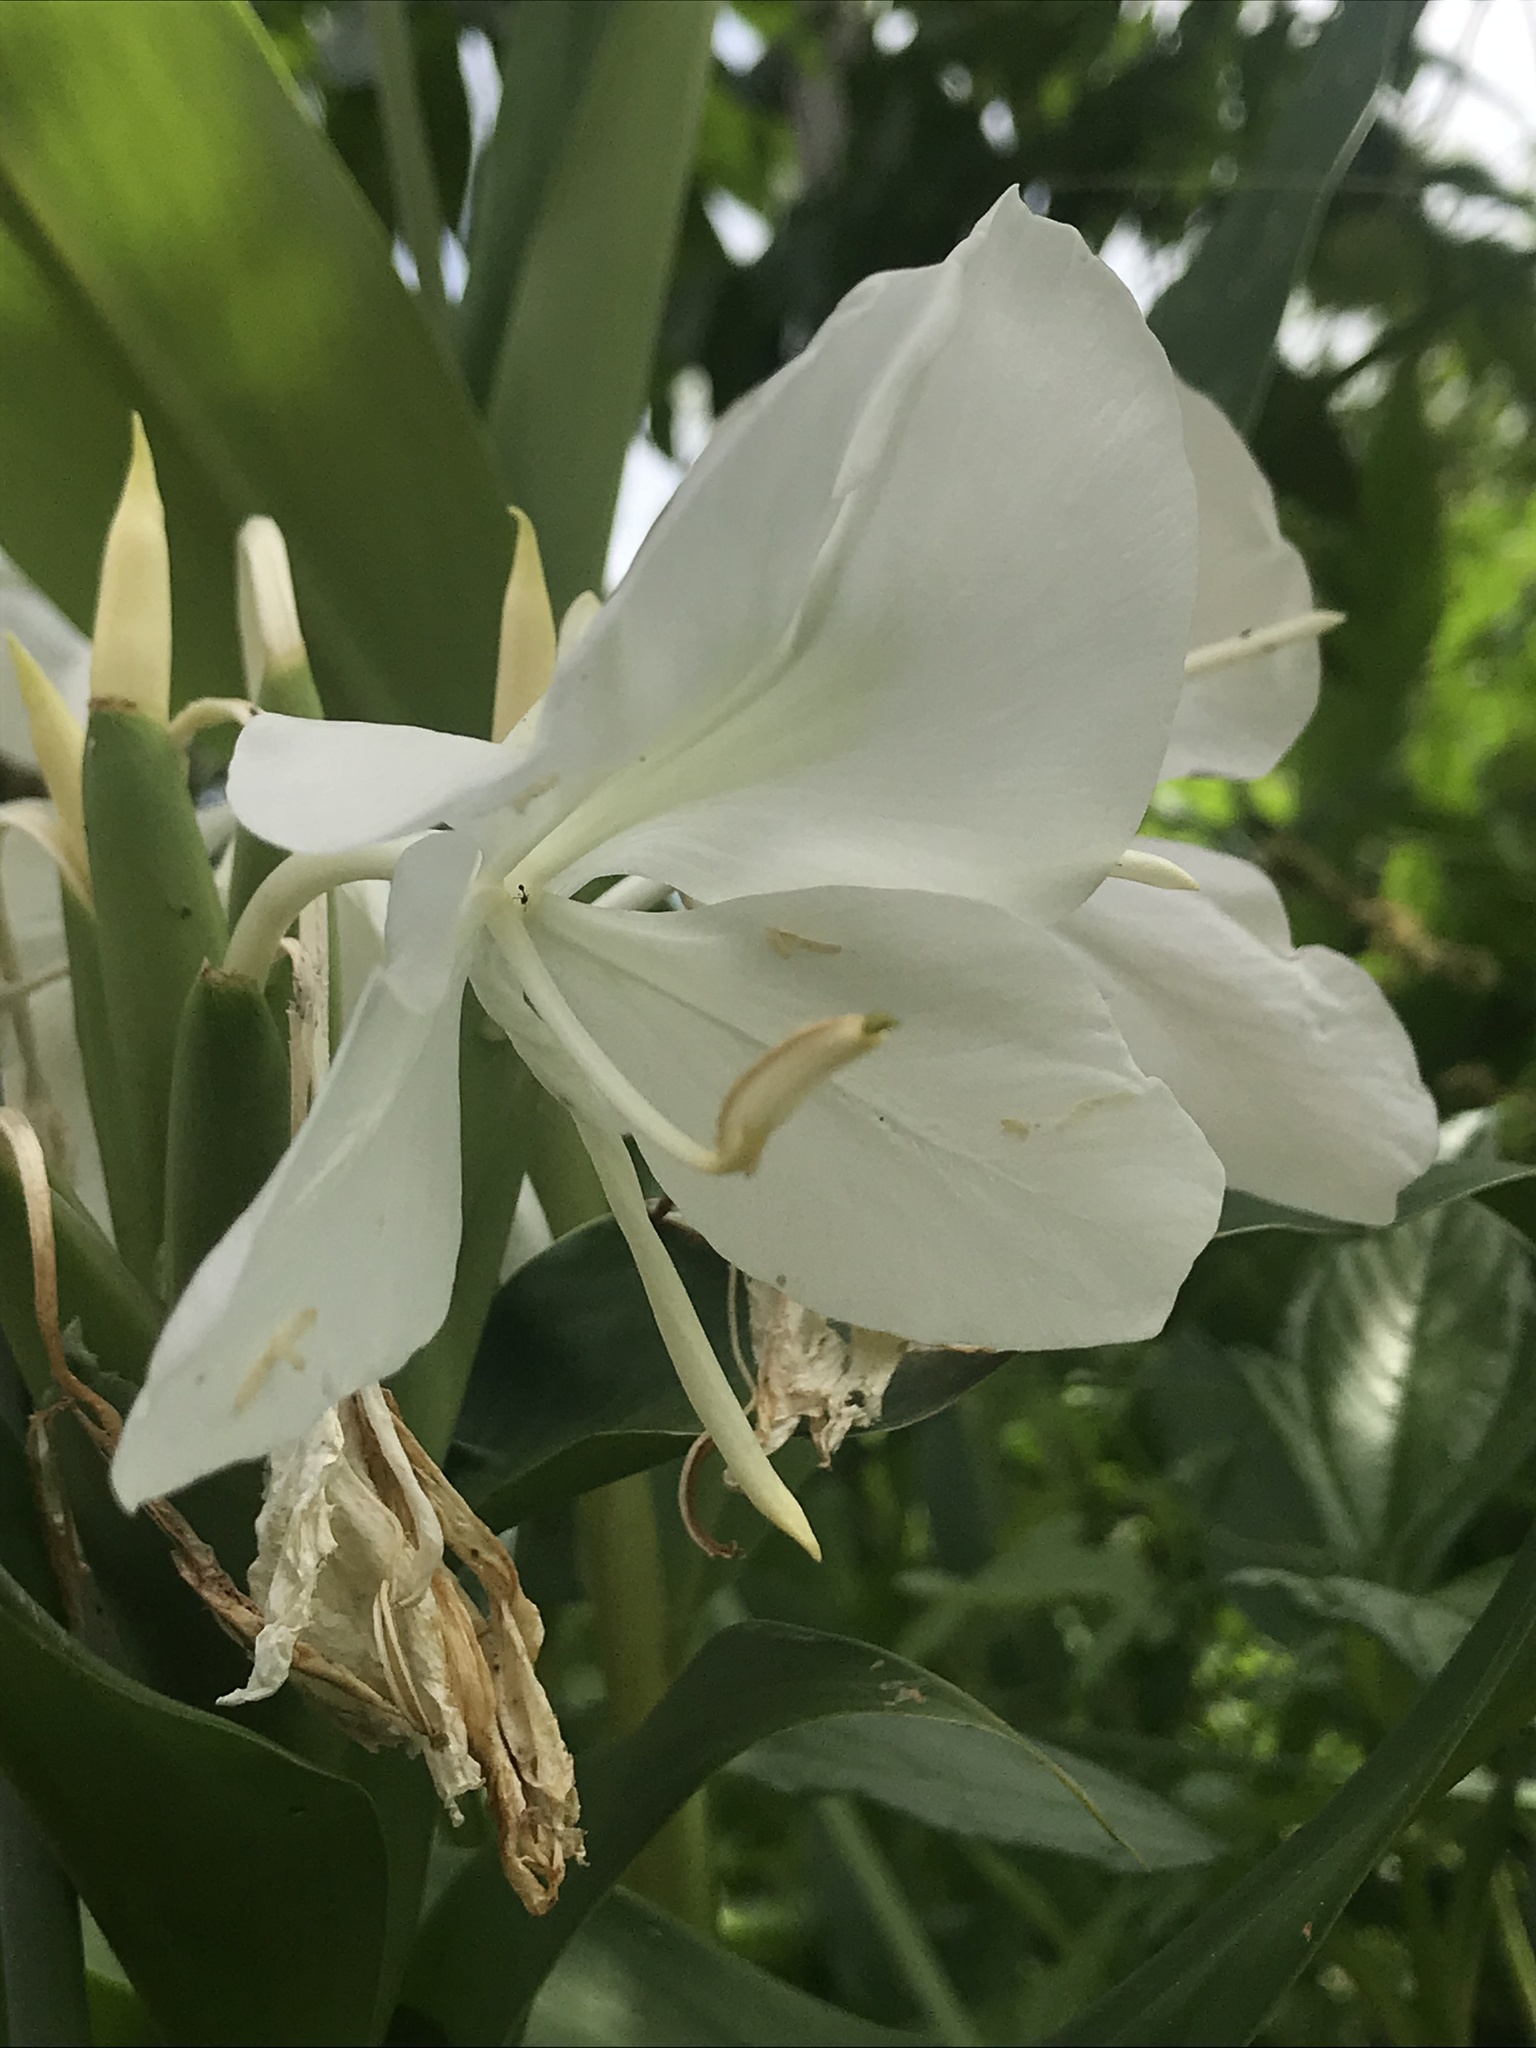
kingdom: Plantae
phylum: Tracheophyta
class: Liliopsida
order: Zingiberales
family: Zingiberaceae
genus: Hedychium
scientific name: Hedychium coronarium
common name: White garland-lily
